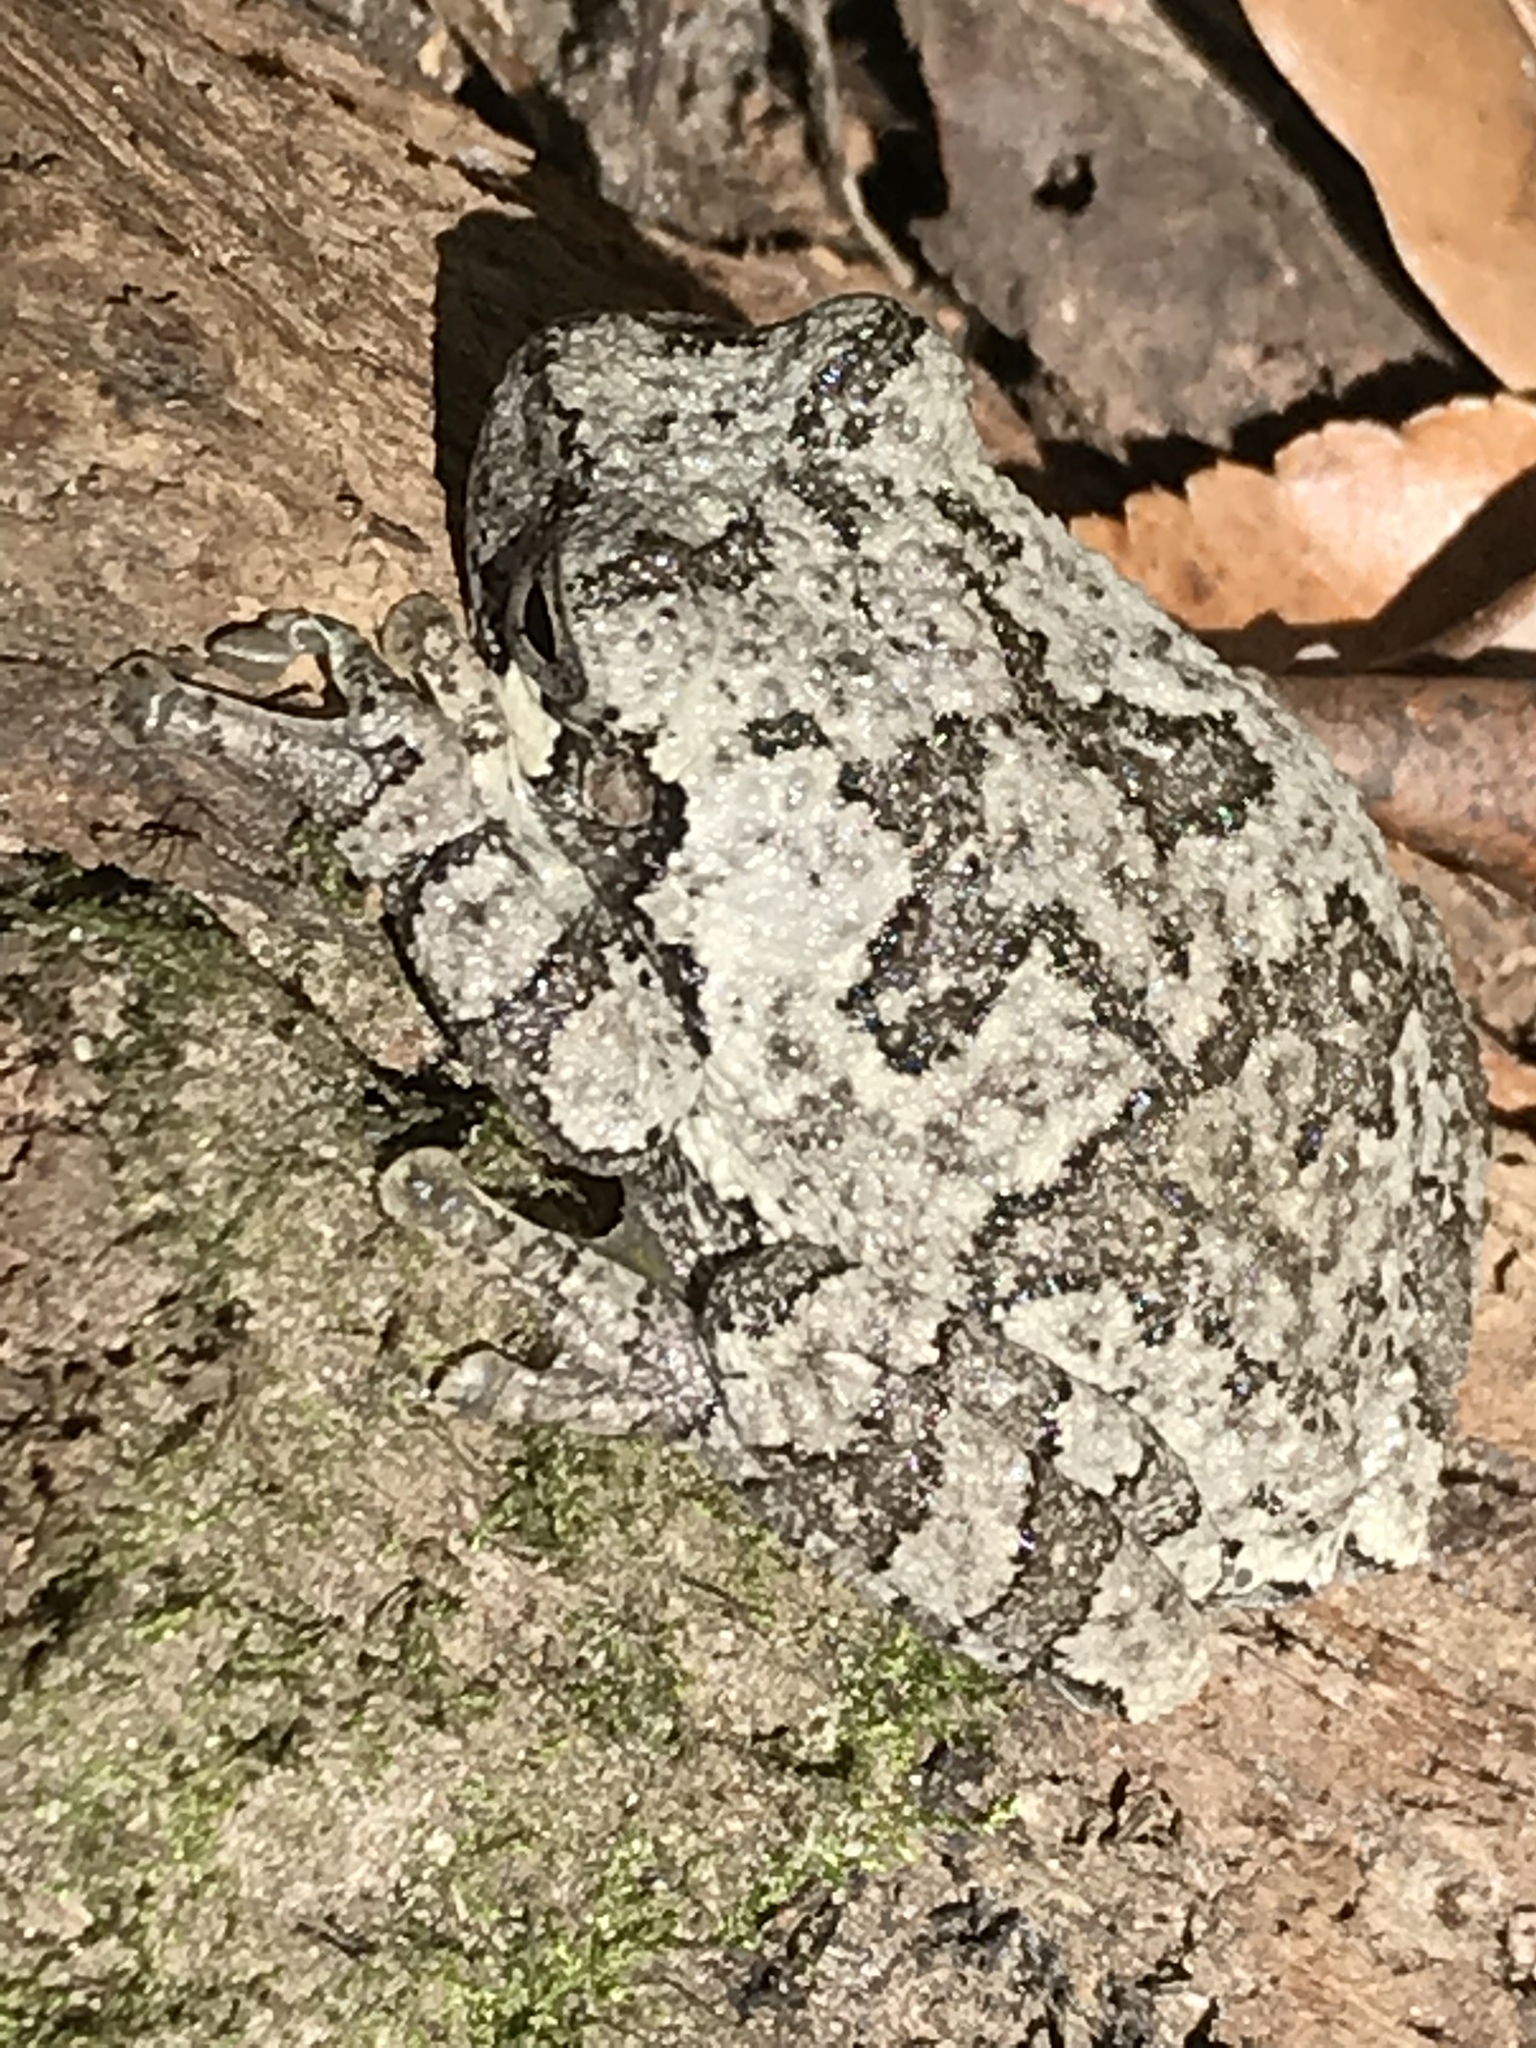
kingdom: Animalia
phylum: Chordata
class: Amphibia
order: Anura
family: Hylidae
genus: Hyla
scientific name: Hyla
